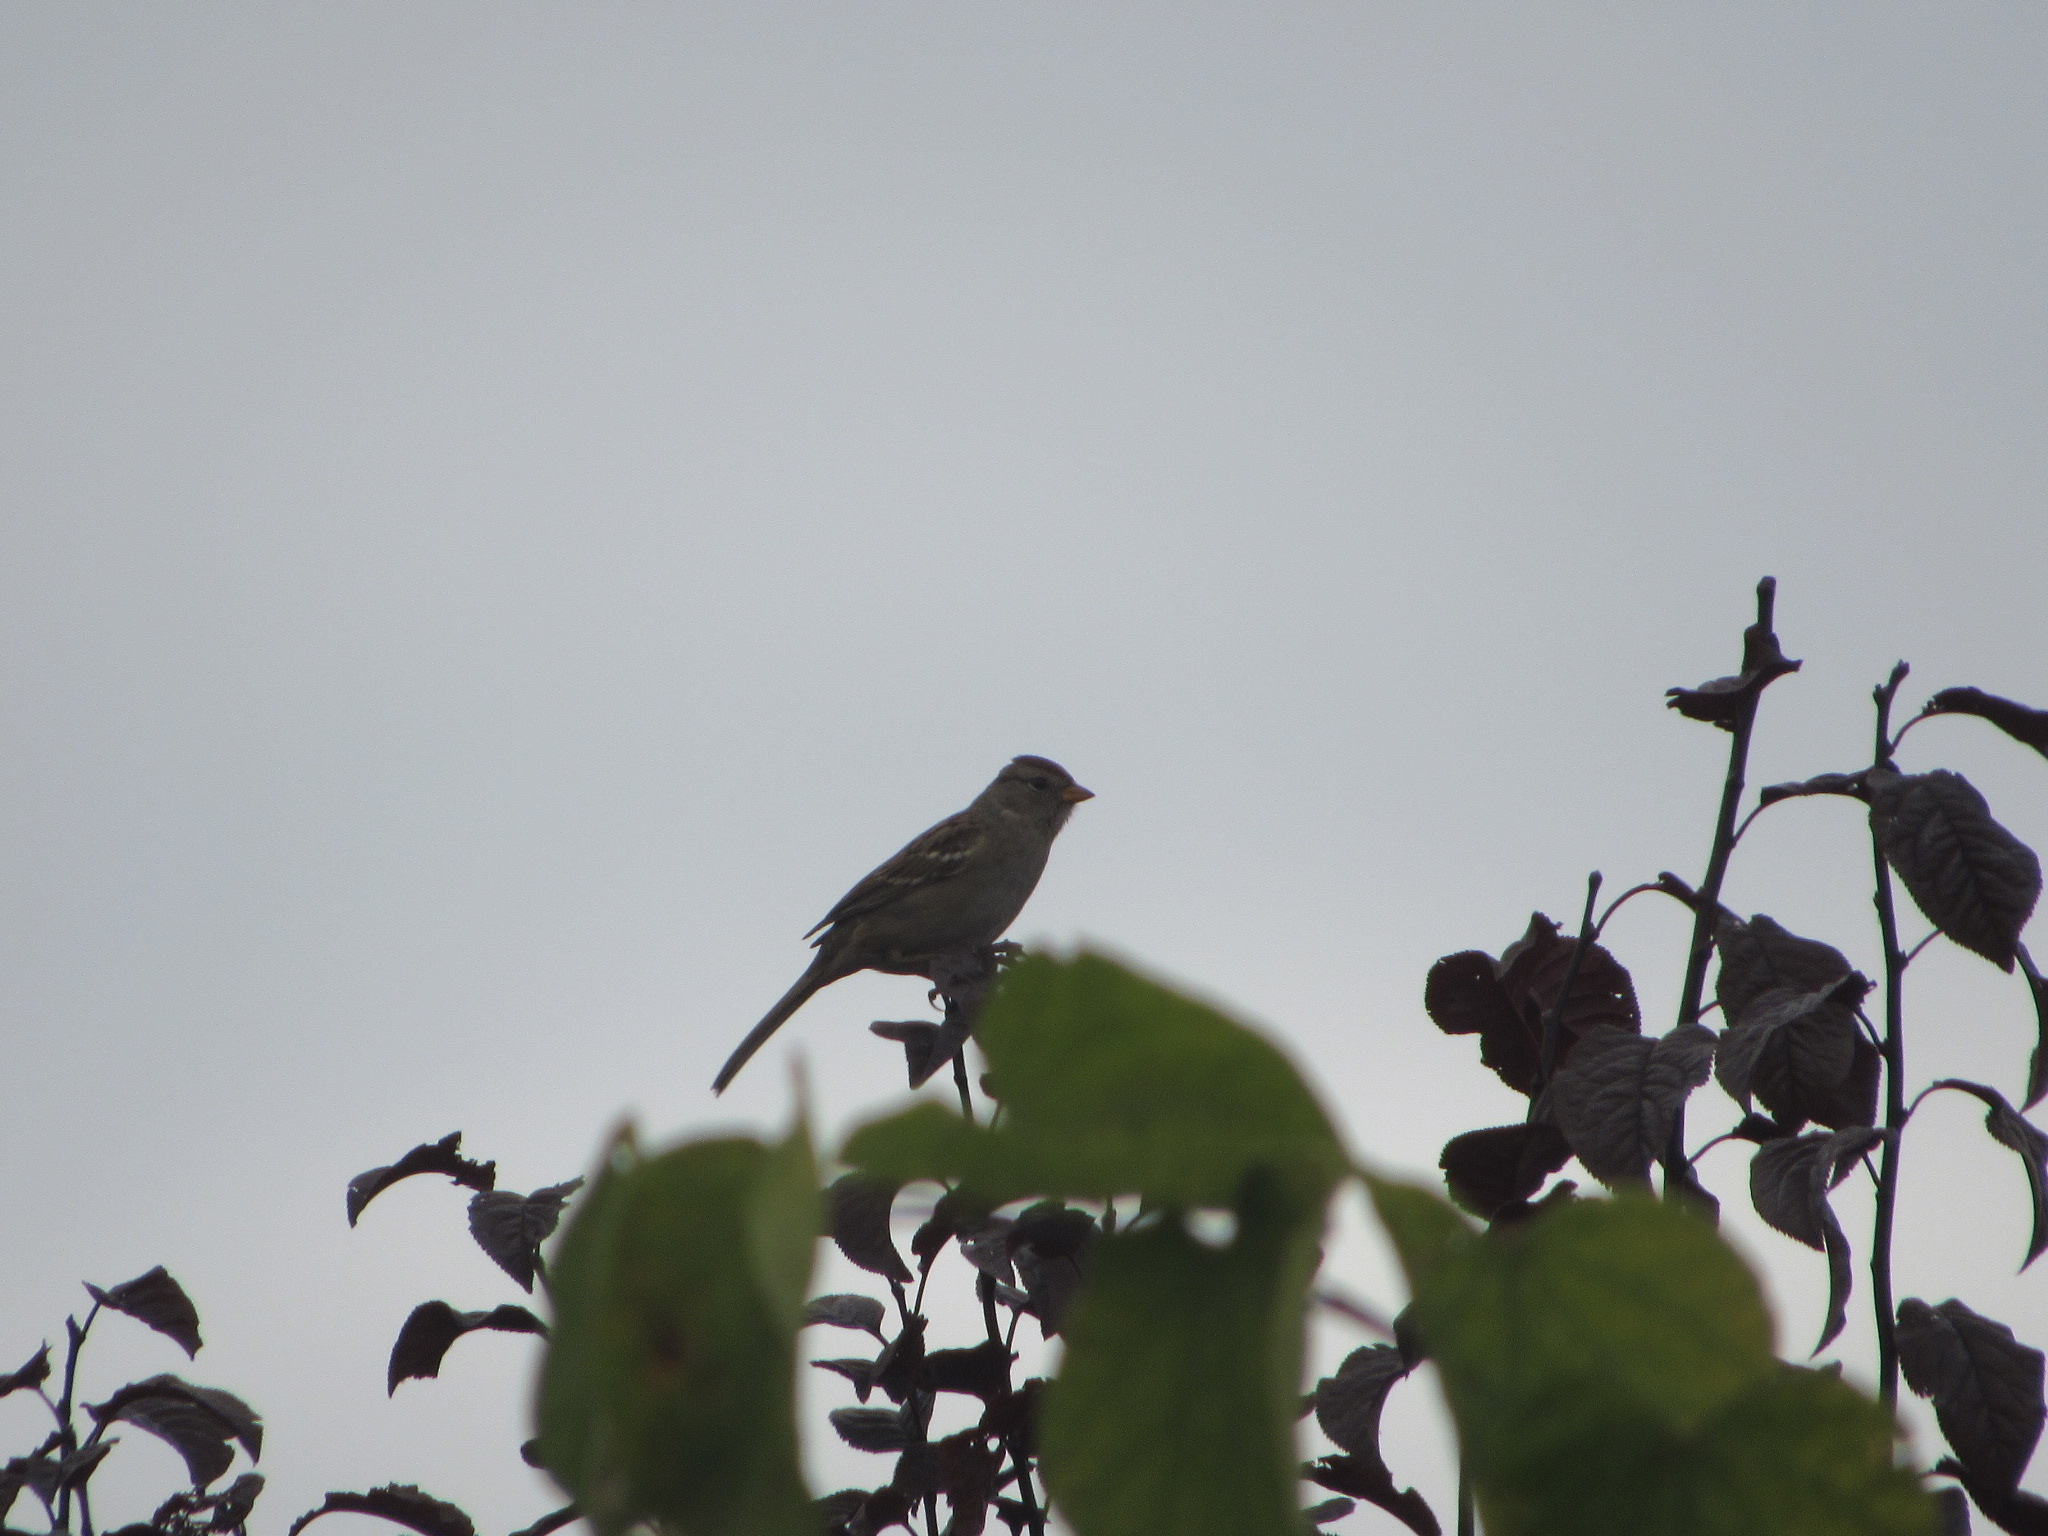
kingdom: Animalia
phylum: Chordata
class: Aves
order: Passeriformes
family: Passerellidae
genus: Zonotrichia
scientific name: Zonotrichia leucophrys
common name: White-crowned sparrow
